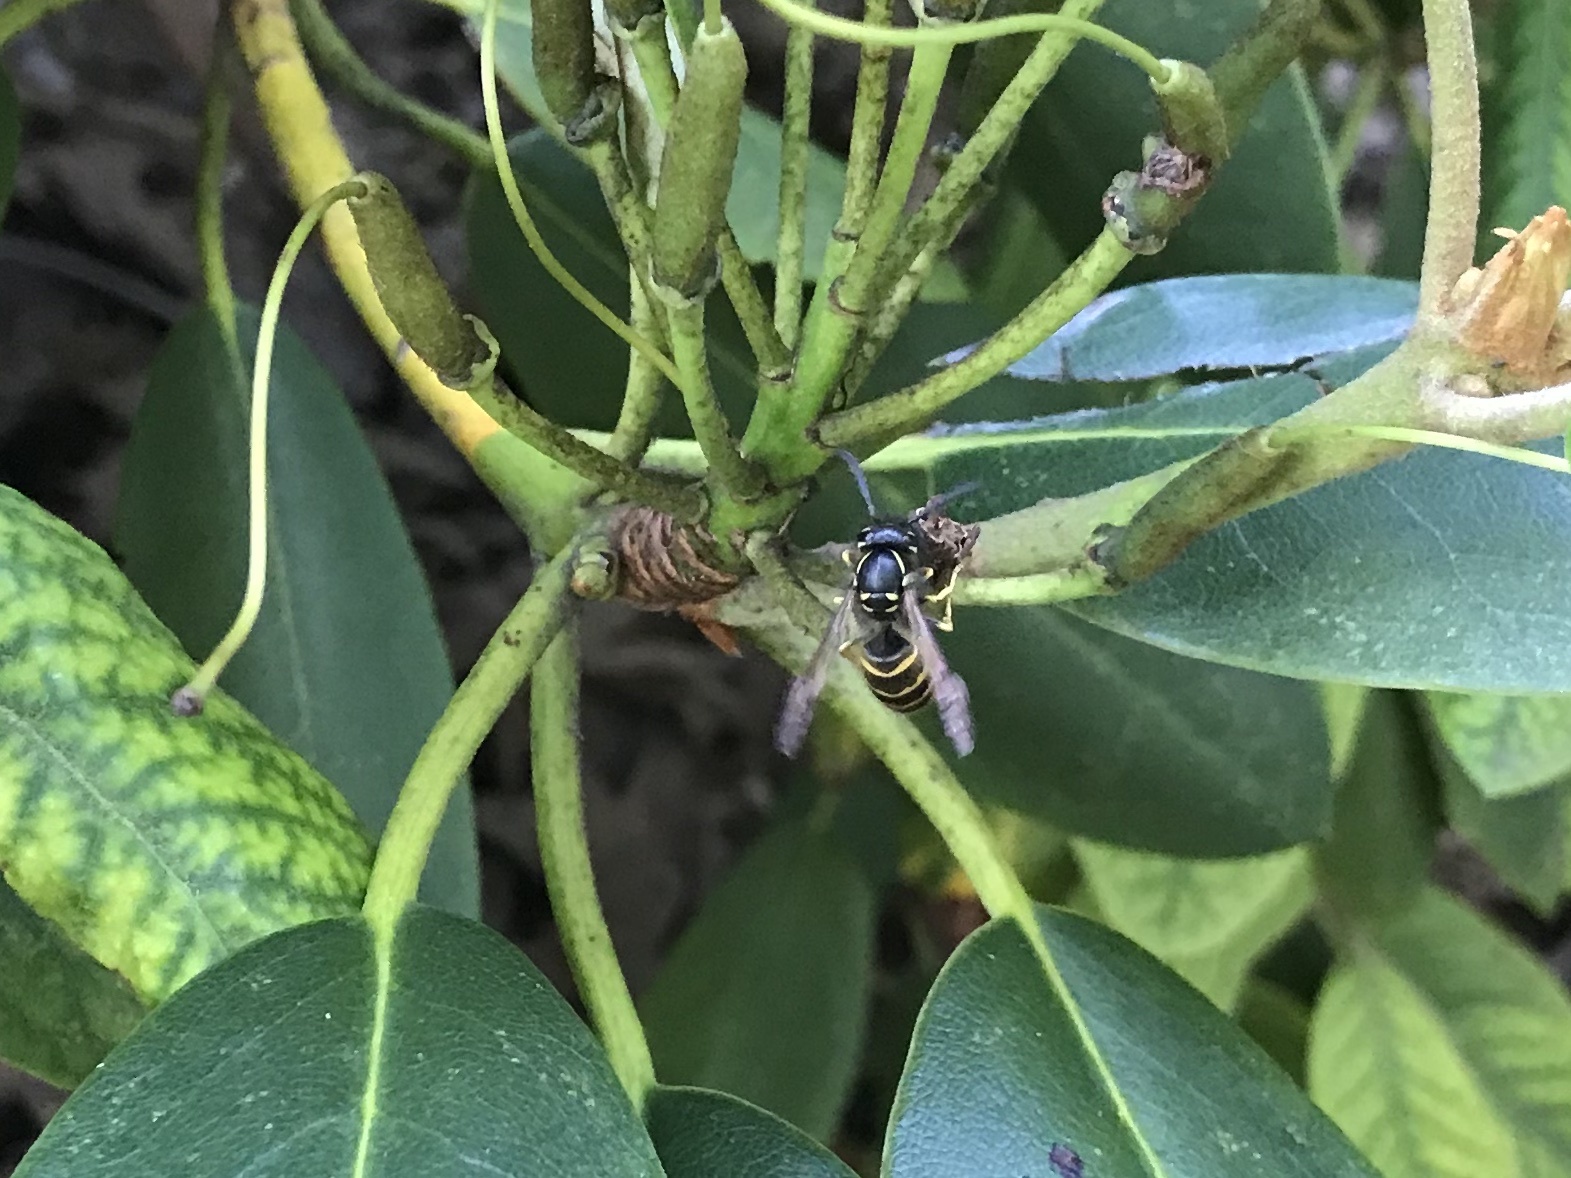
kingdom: Animalia
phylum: Arthropoda
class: Insecta
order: Hymenoptera
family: Vespidae
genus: Vespula
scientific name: Vespula alascensis
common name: Alaska yellowjacket
